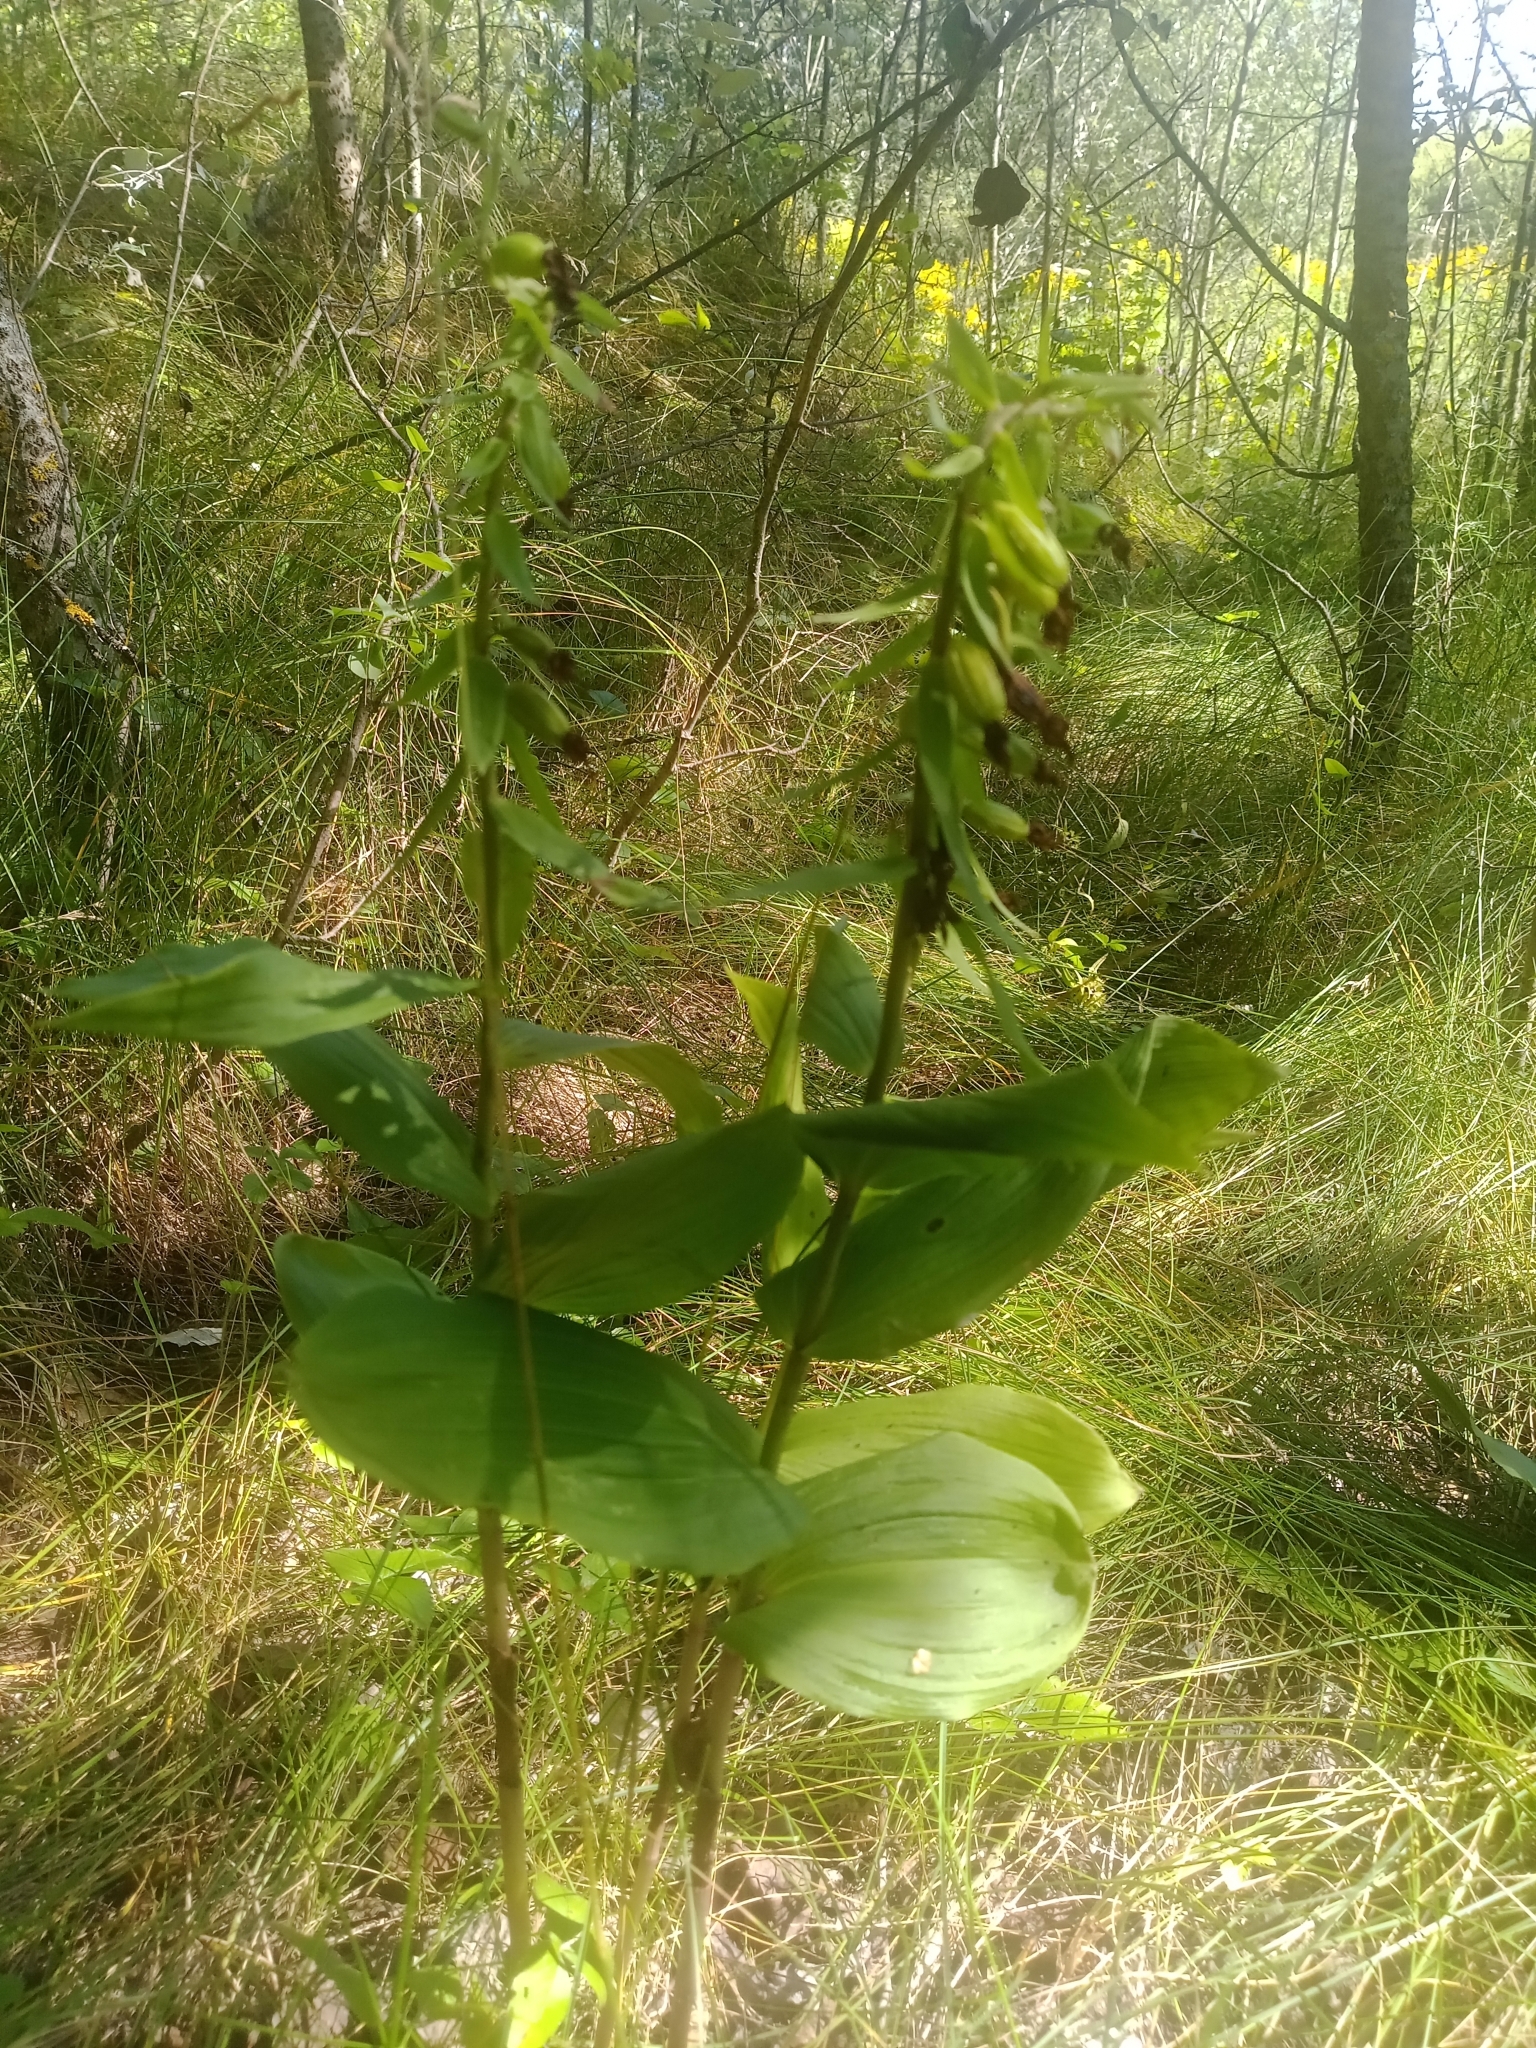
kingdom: Plantae
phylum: Tracheophyta
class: Liliopsida
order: Asparagales
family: Orchidaceae
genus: Epipactis
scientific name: Epipactis helleborine
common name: Broad-leaved helleborine
